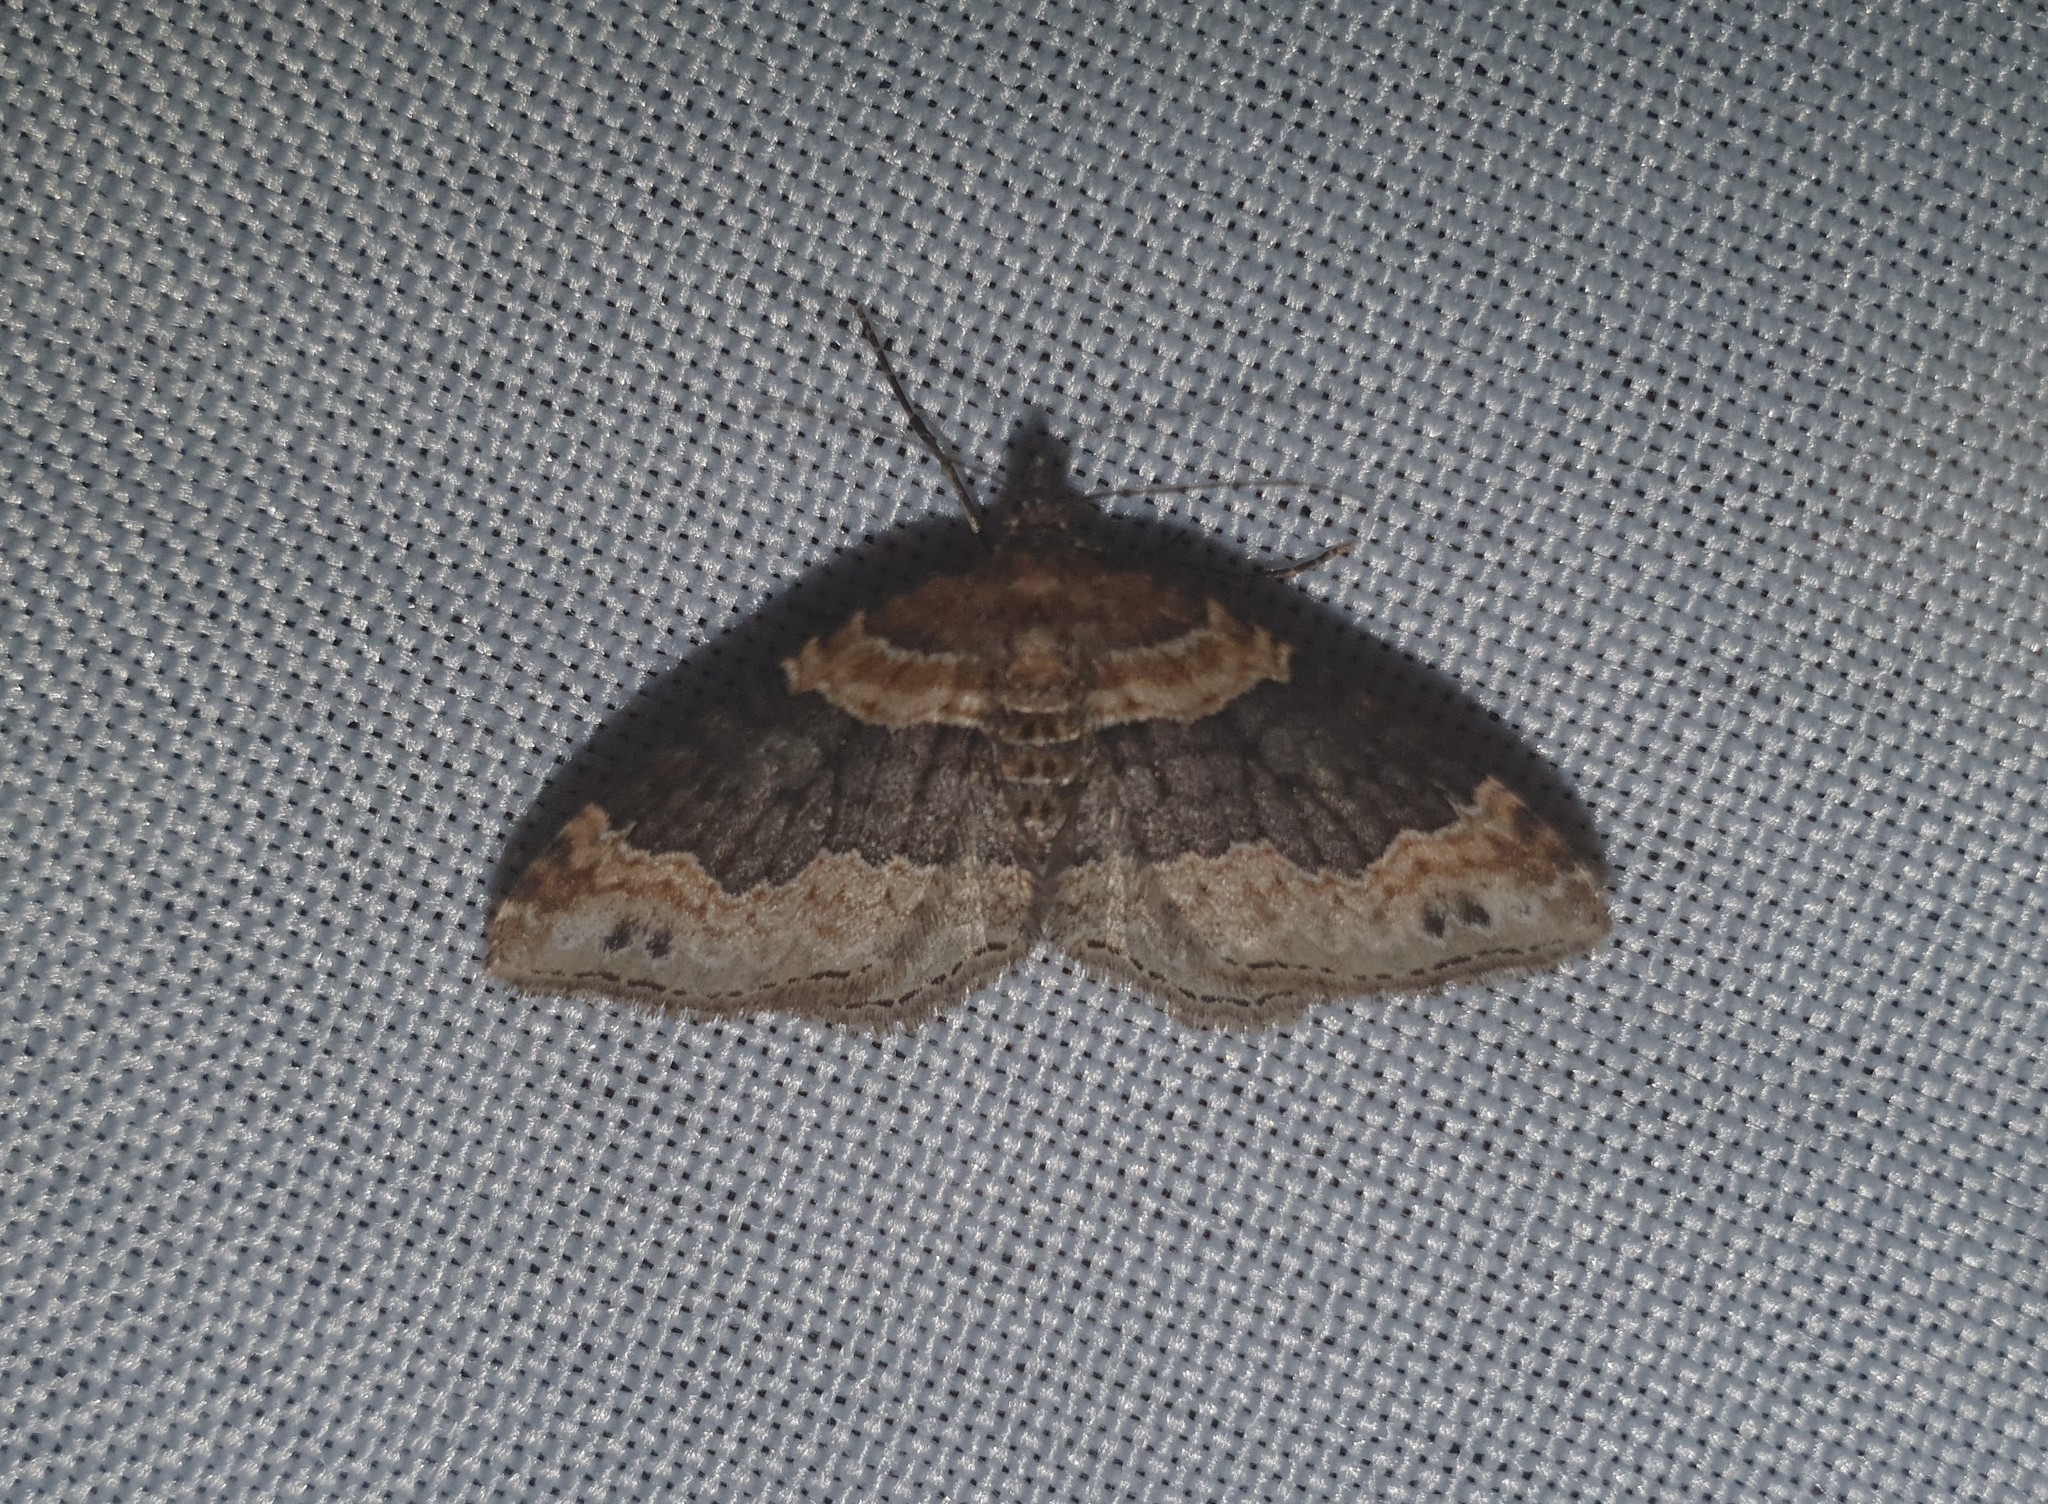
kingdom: Animalia
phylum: Arthropoda
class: Insecta
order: Lepidoptera
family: Geometridae
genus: Xanthorhoe
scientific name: Xanthorhoe ferrugata
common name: Dark-barred twin-spot carpet
